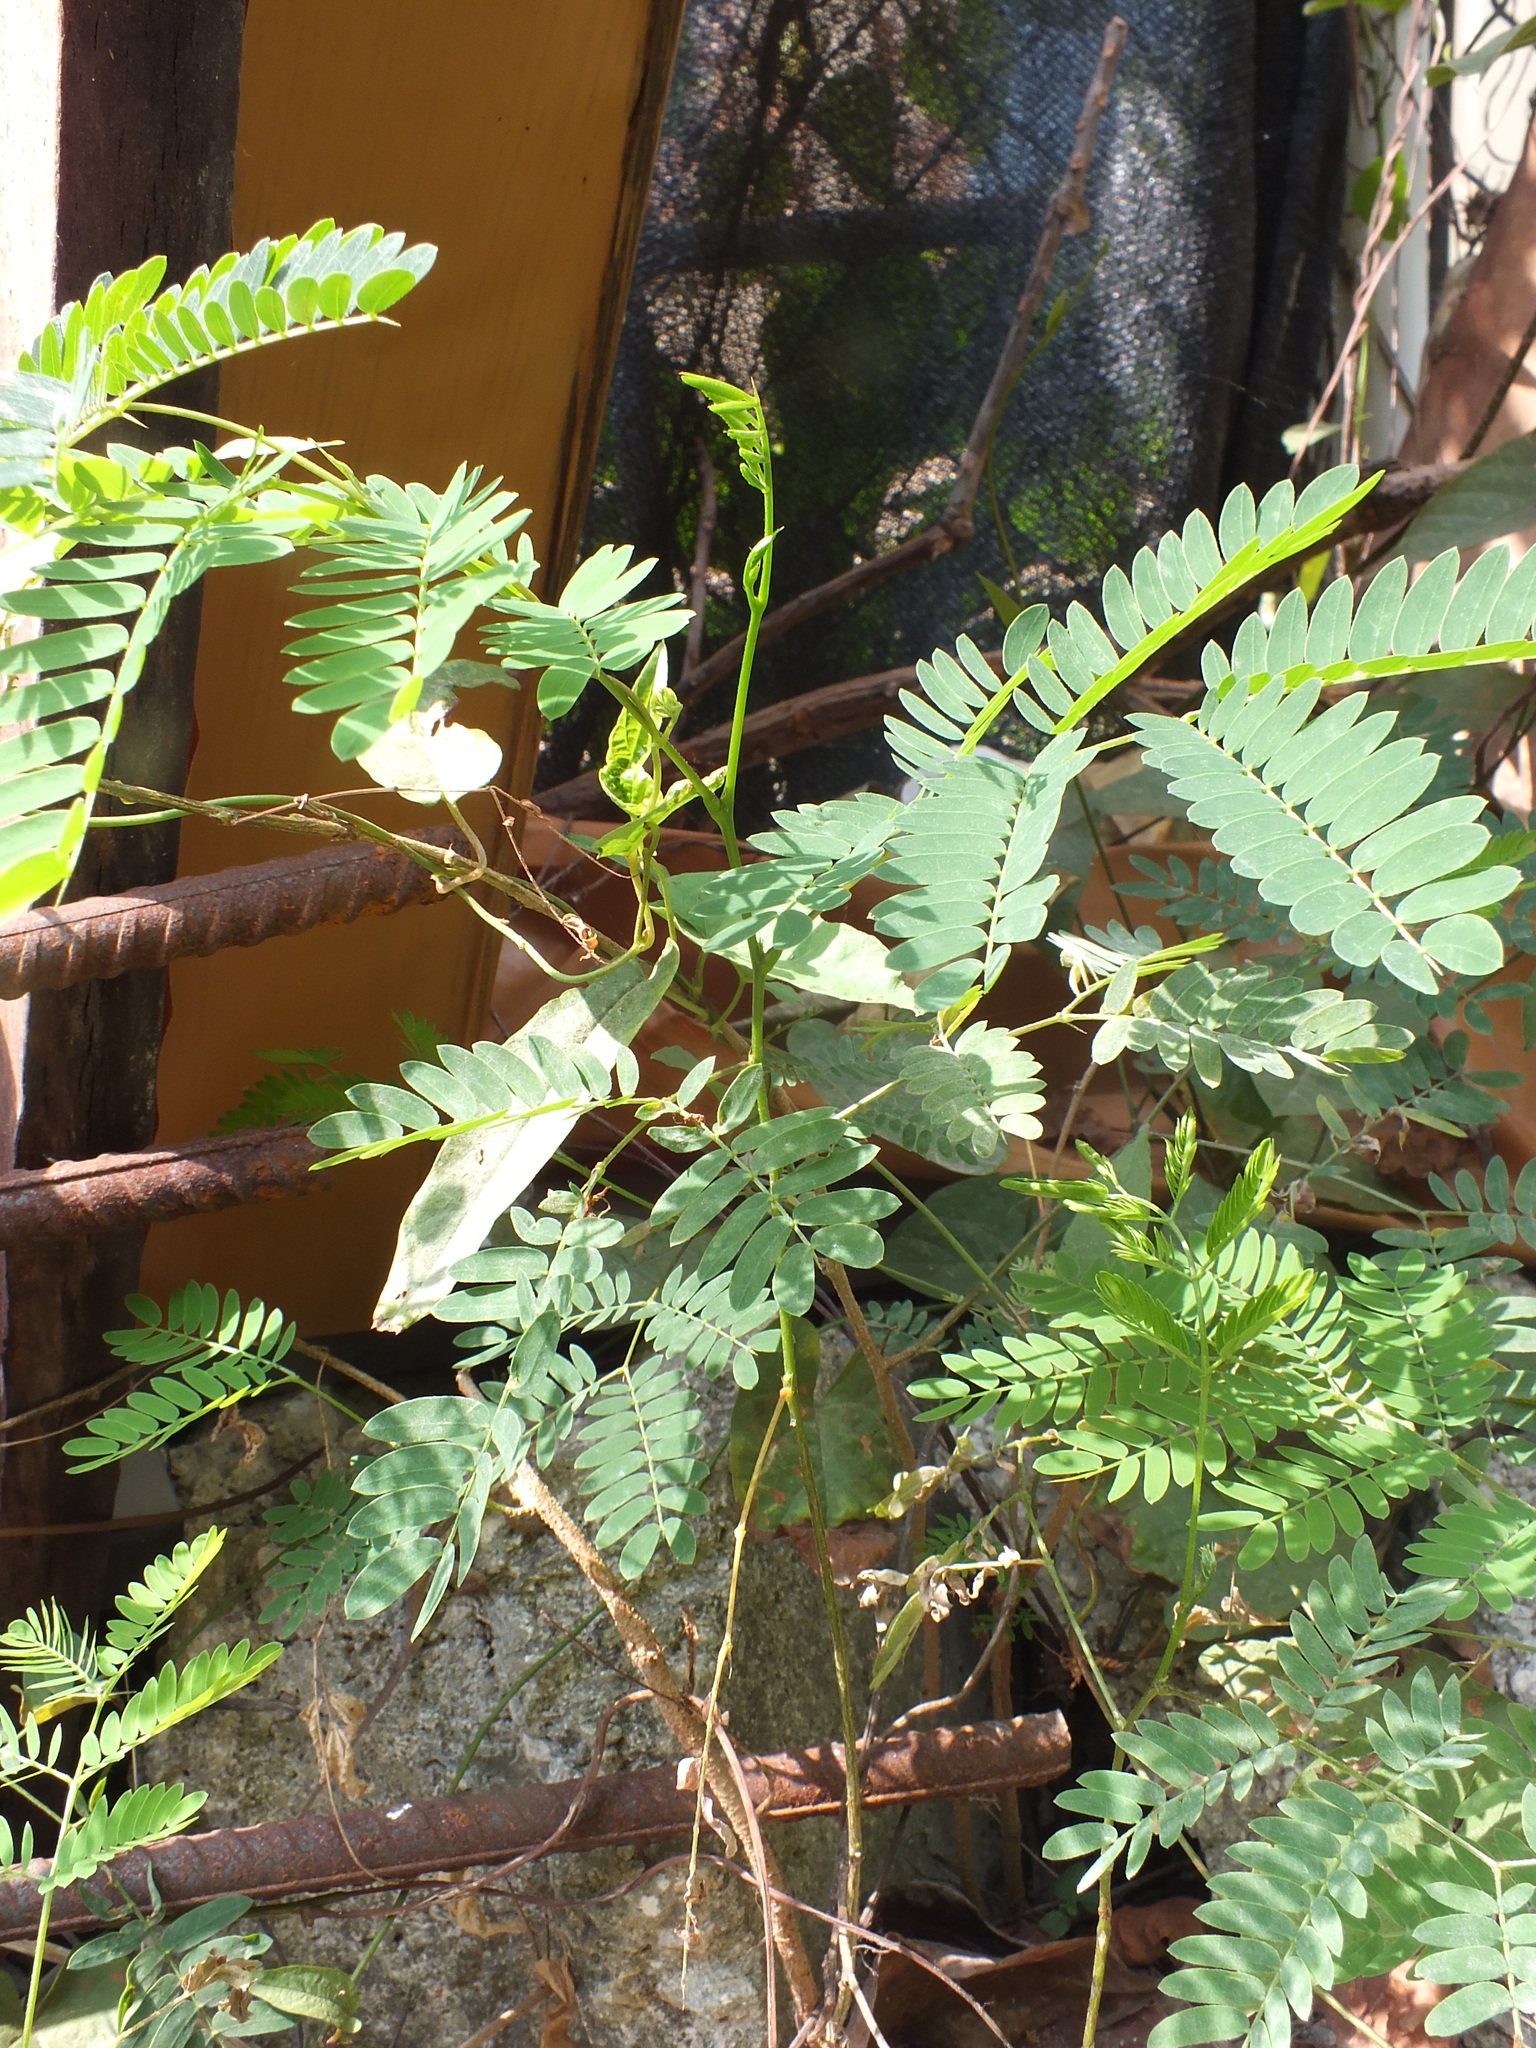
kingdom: Plantae
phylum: Tracheophyta
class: Magnoliopsida
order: Fabales
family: Fabaceae
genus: Leucaena
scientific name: Leucaena leucocephala
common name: White leadtree
